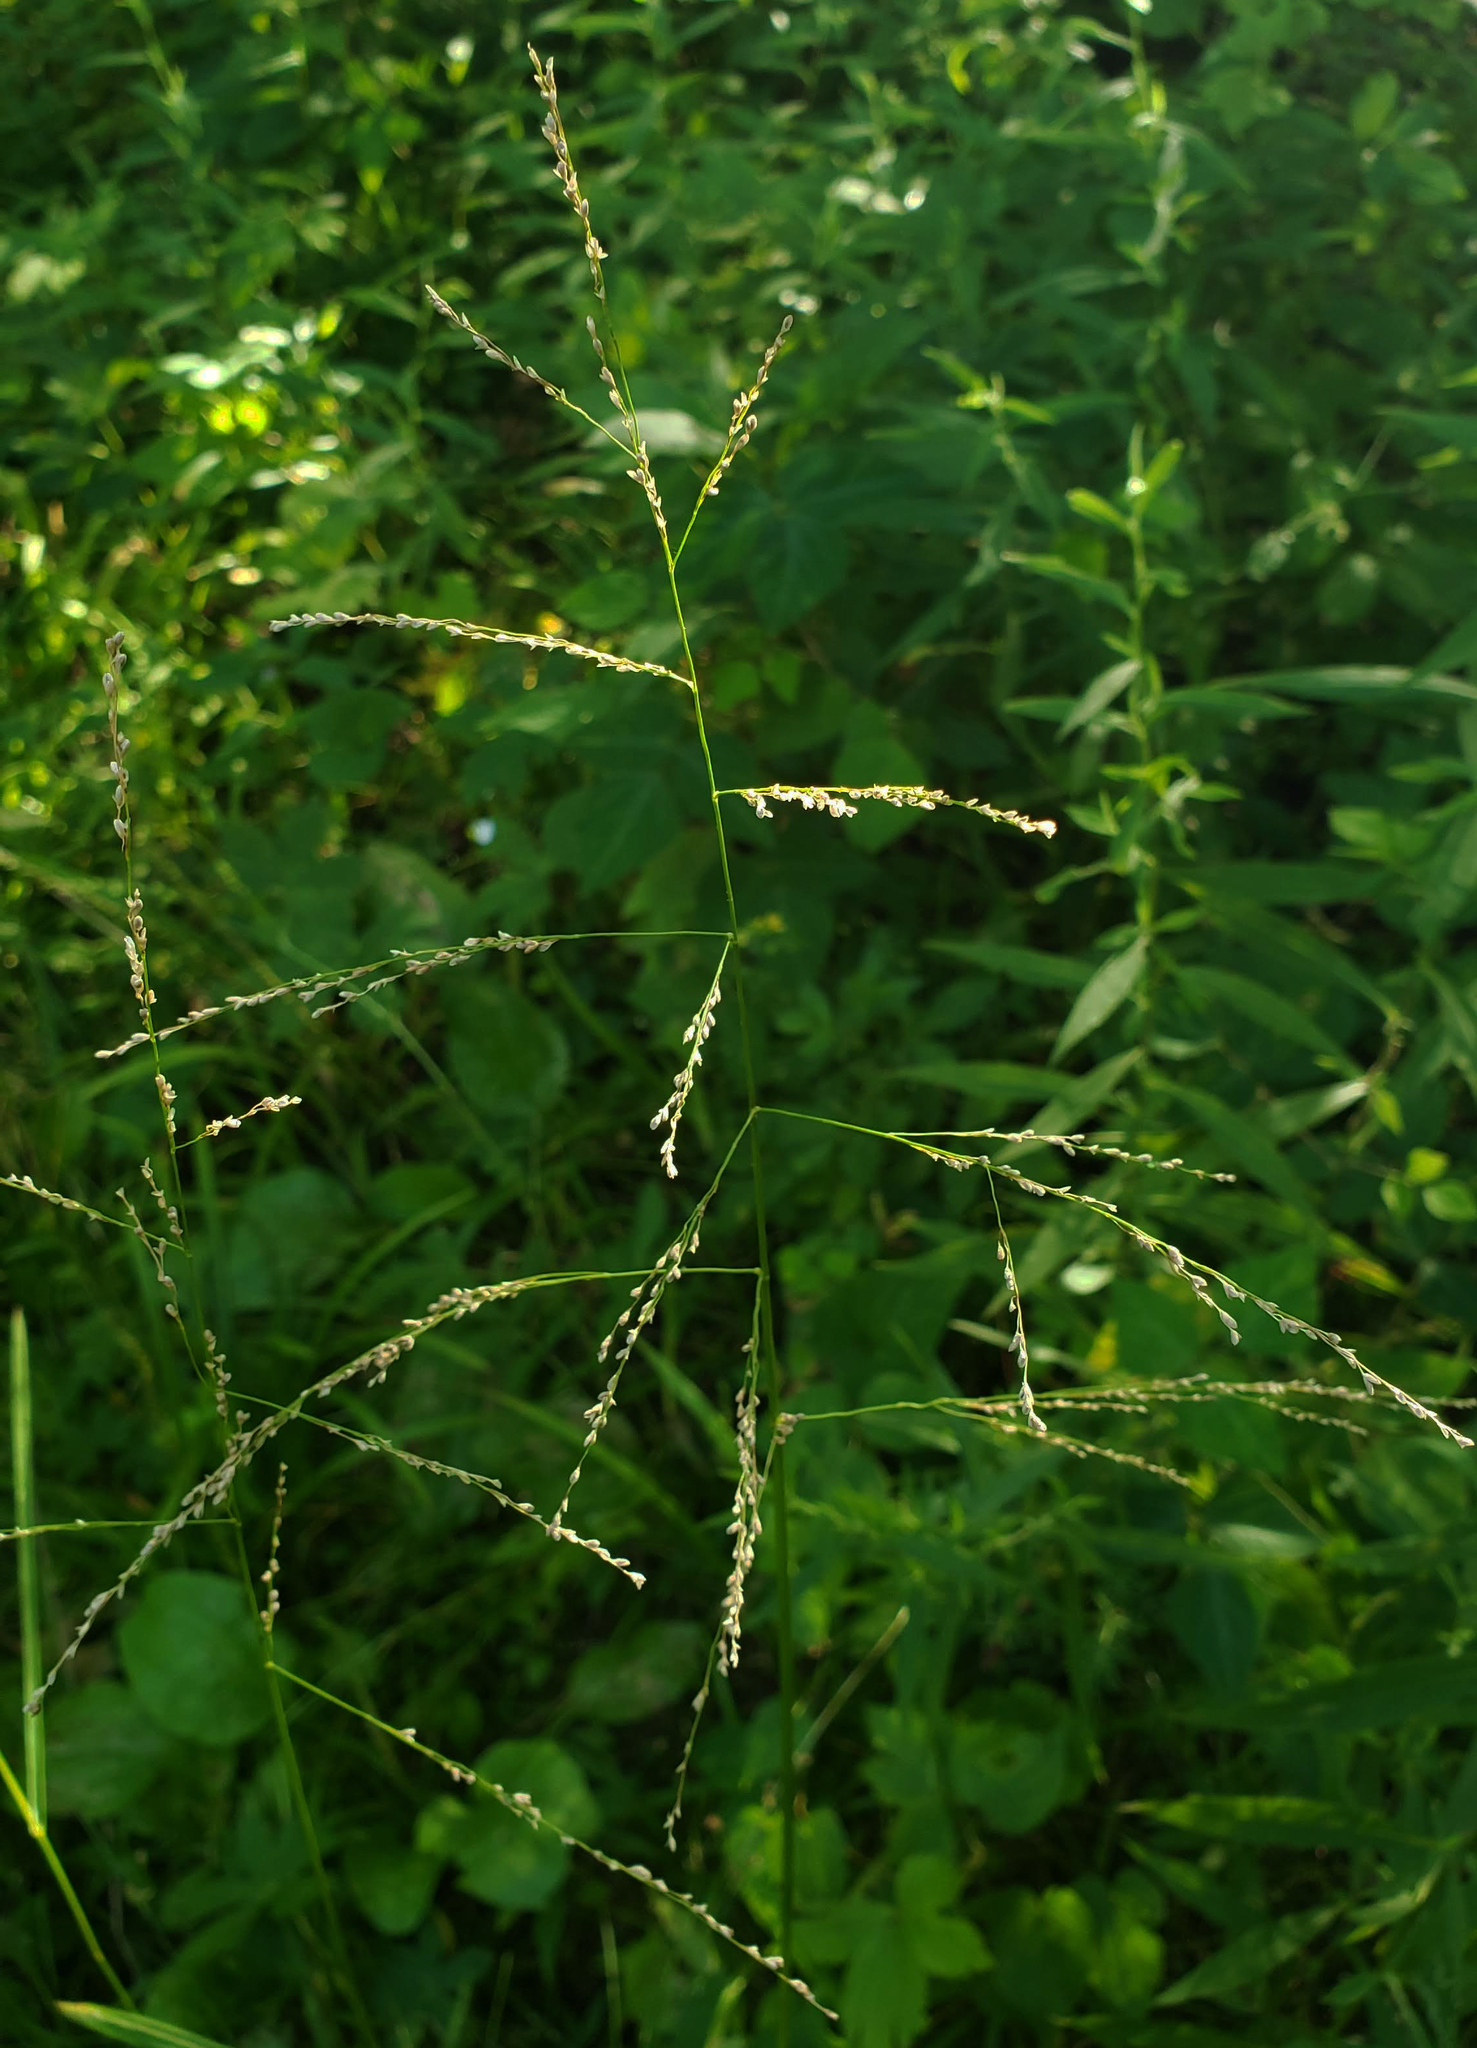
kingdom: Plantae
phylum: Tracheophyta
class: Liliopsida
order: Poales
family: Poaceae
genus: Glyceria
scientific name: Glyceria striata
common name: Fowl manna grass
